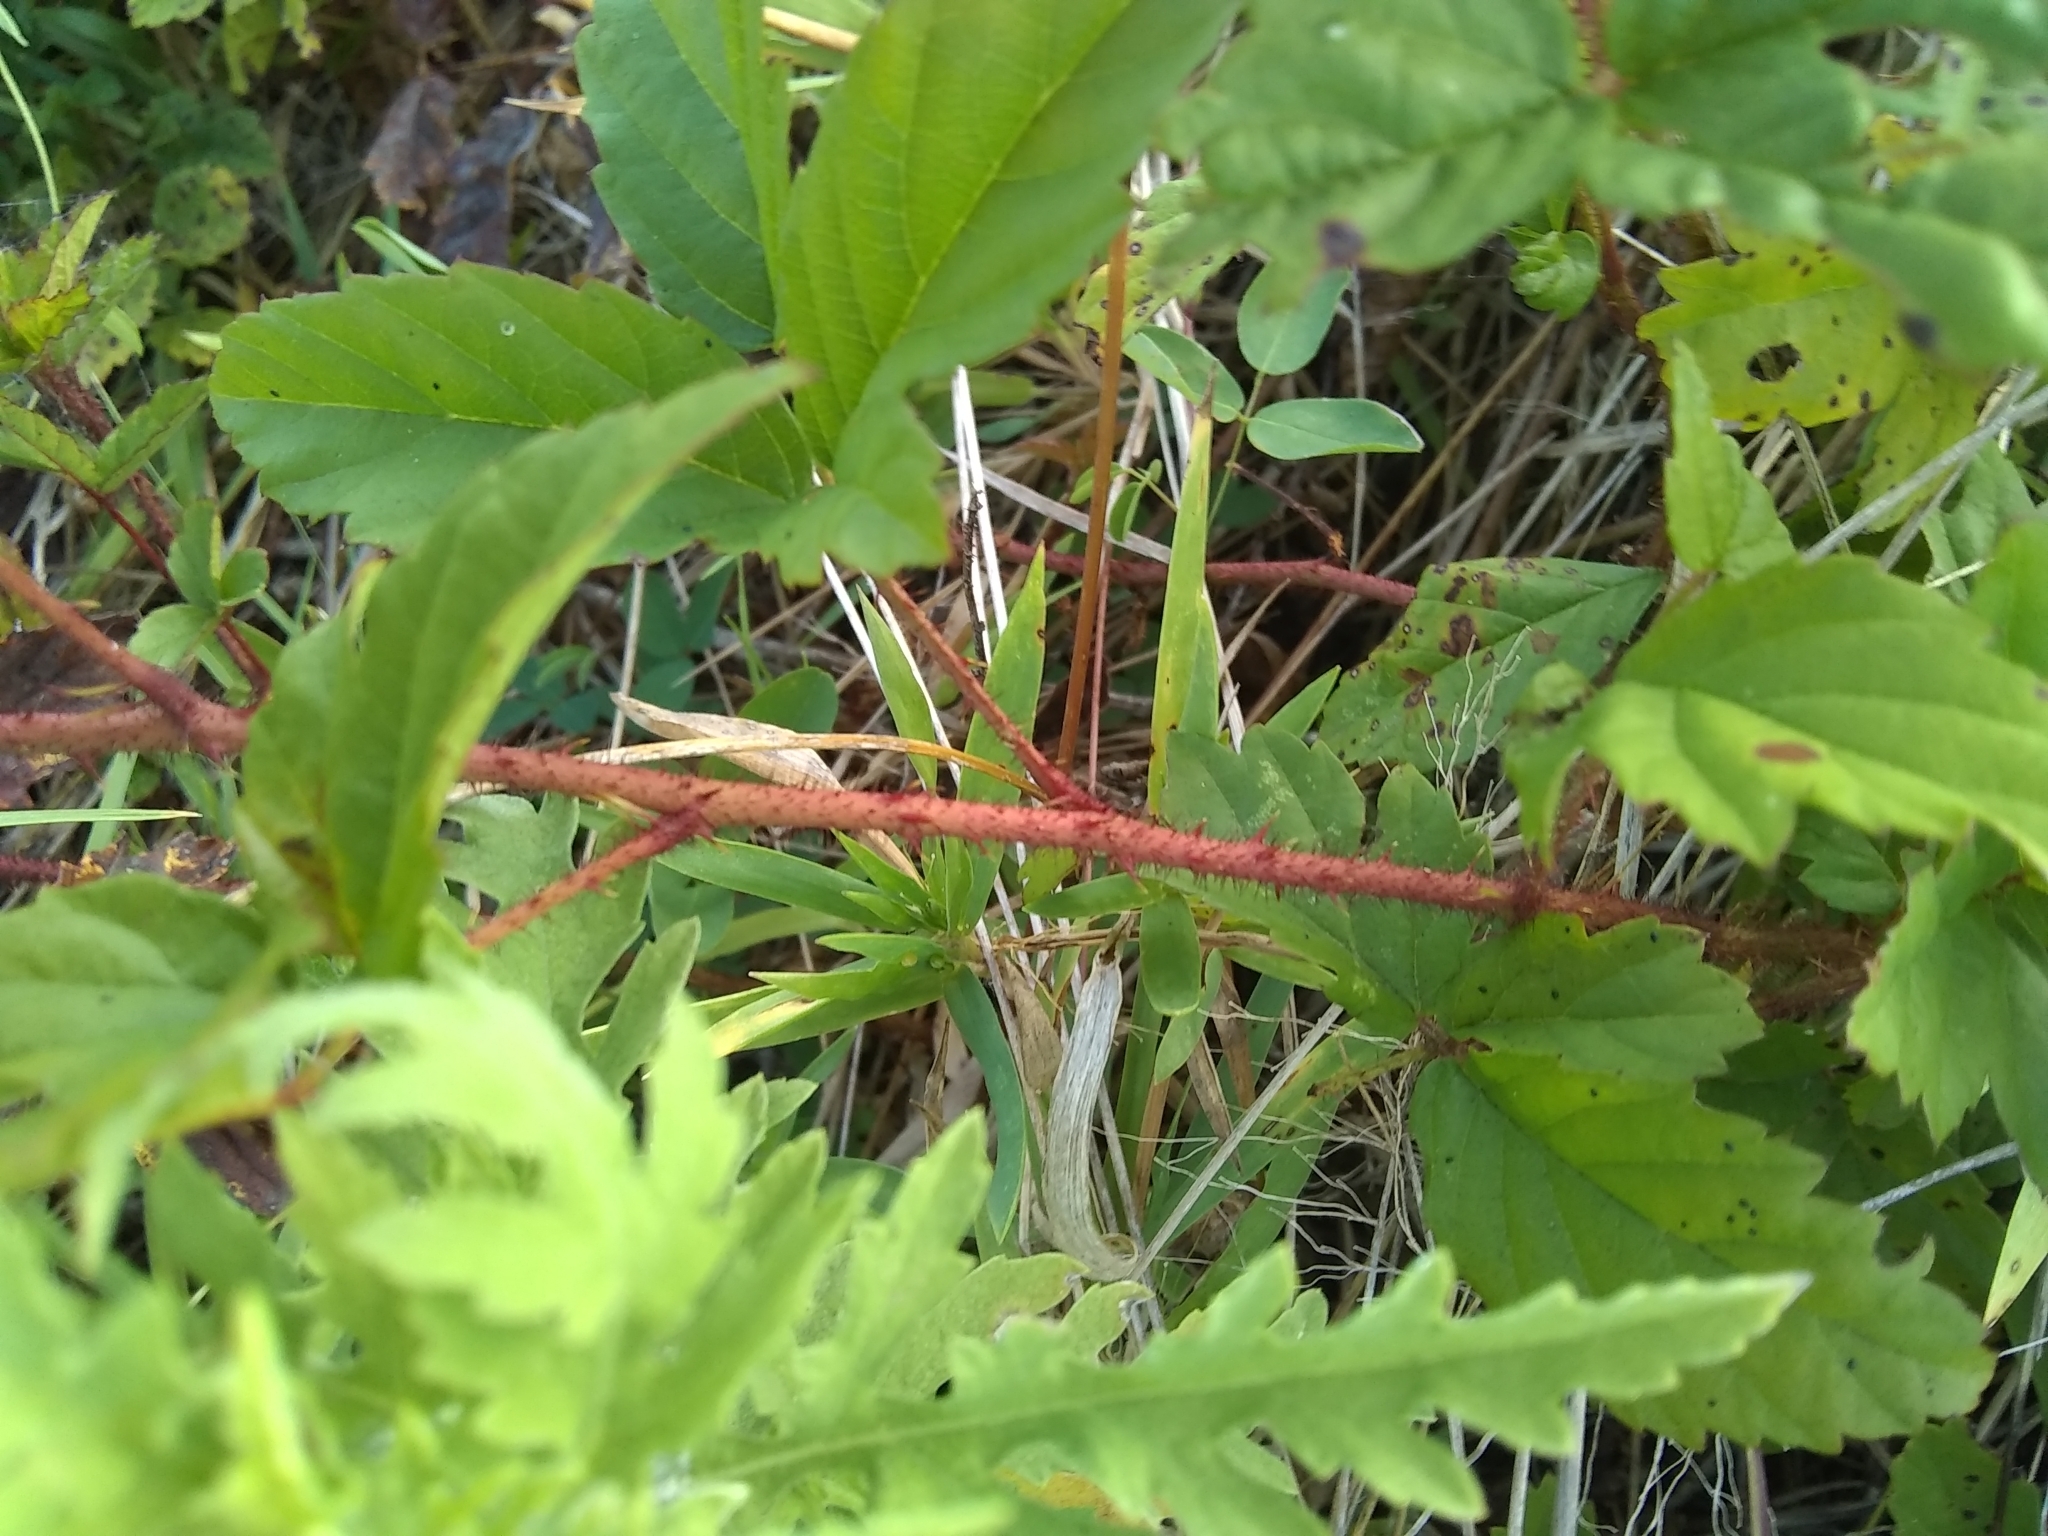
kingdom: Plantae
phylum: Tracheophyta
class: Magnoliopsida
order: Rosales
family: Rosaceae
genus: Rubus
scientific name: Rubus trivialis
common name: Southern dewberry
